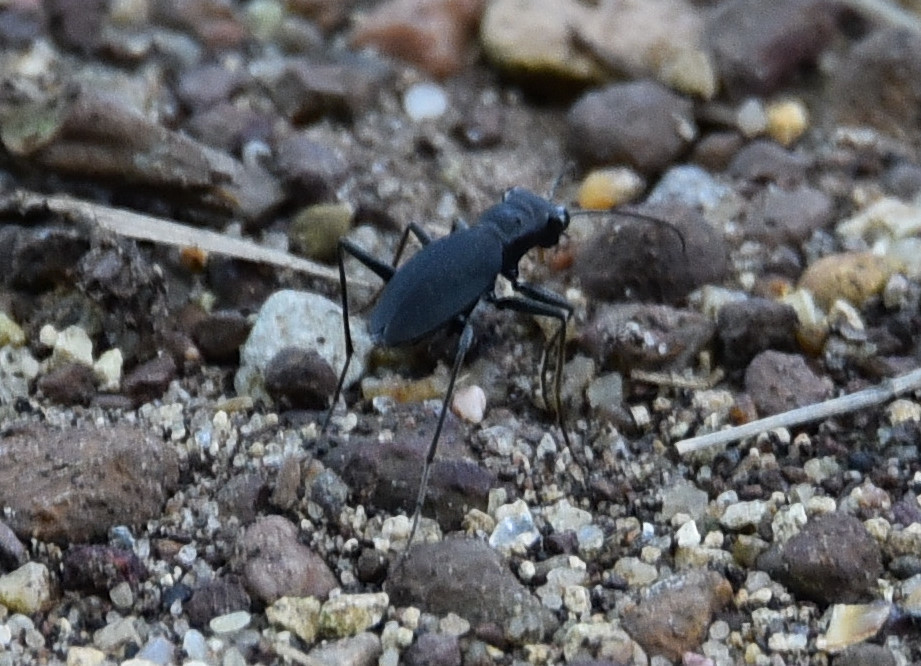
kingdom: Animalia
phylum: Arthropoda
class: Insecta
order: Coleoptera
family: Carabidae
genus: Dromochorus
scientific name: Dromochorus pilatei
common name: Cajun dromo tiger beetle
